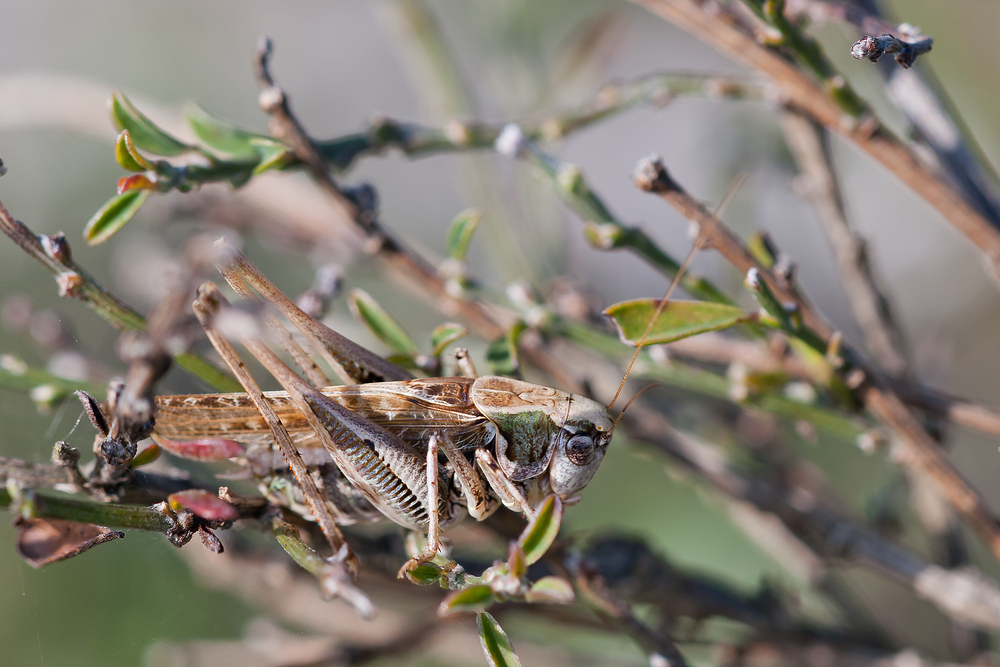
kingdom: Animalia
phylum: Arthropoda
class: Insecta
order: Orthoptera
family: Tettigoniidae
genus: Platycleis
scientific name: Platycleis albopunctata
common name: Grey bush-cricket
